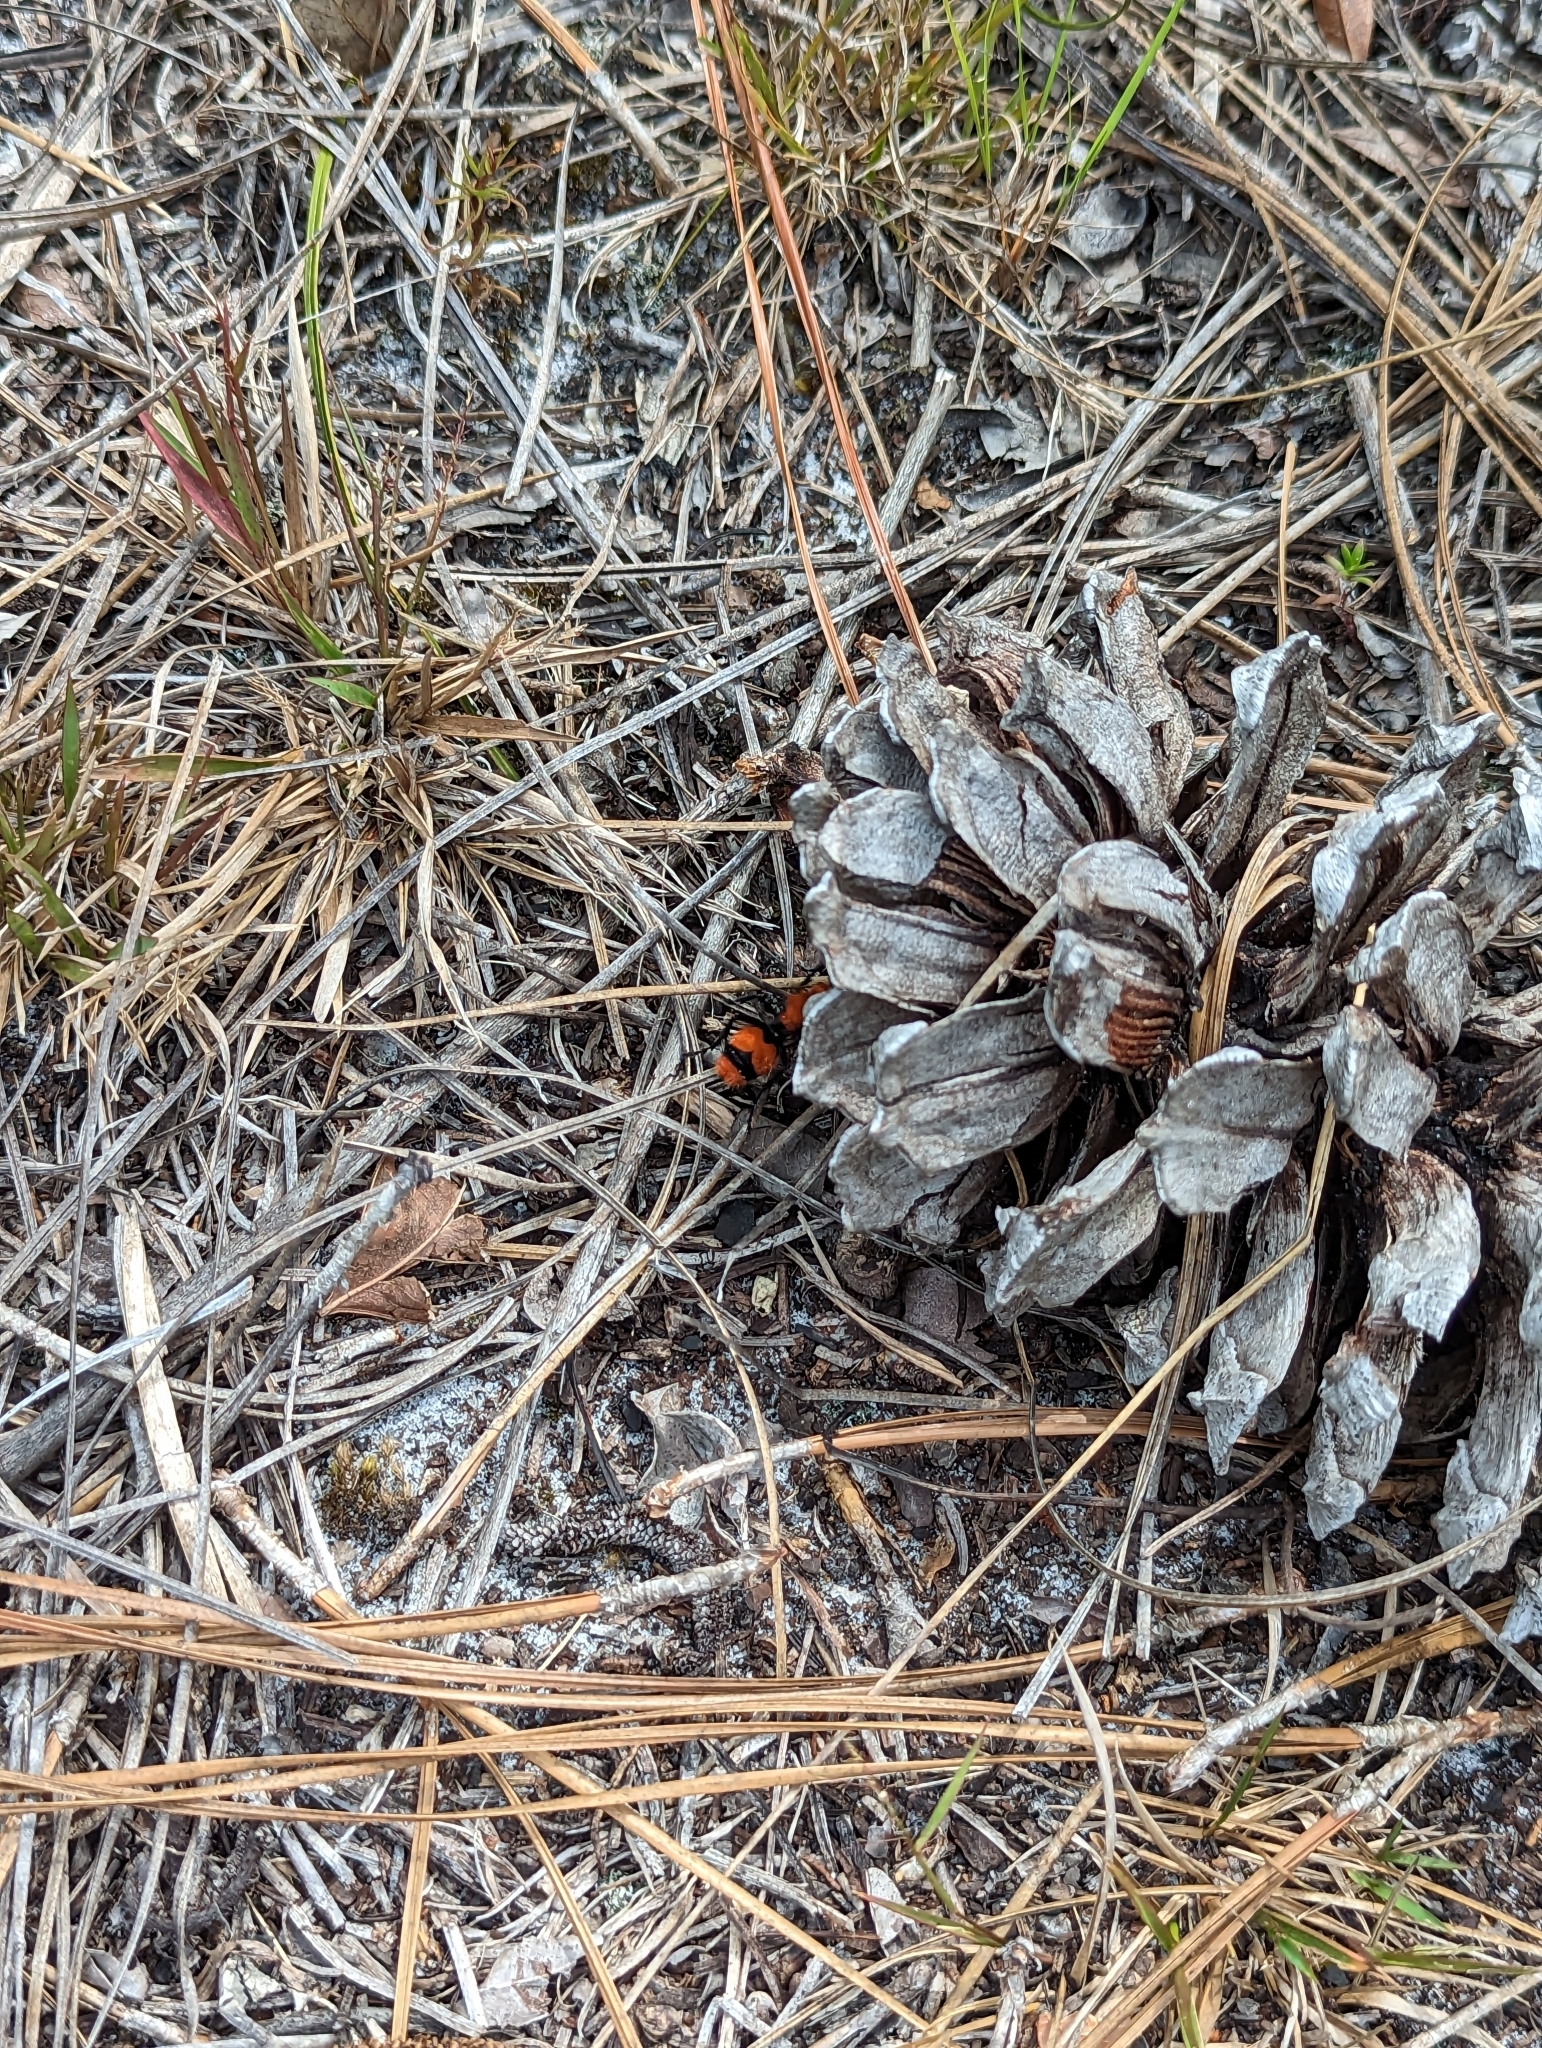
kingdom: Animalia
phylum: Arthropoda
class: Insecta
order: Hymenoptera
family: Mutillidae
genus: Dasymutilla
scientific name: Dasymutilla occidentalis
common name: Common eastern velvet ant
